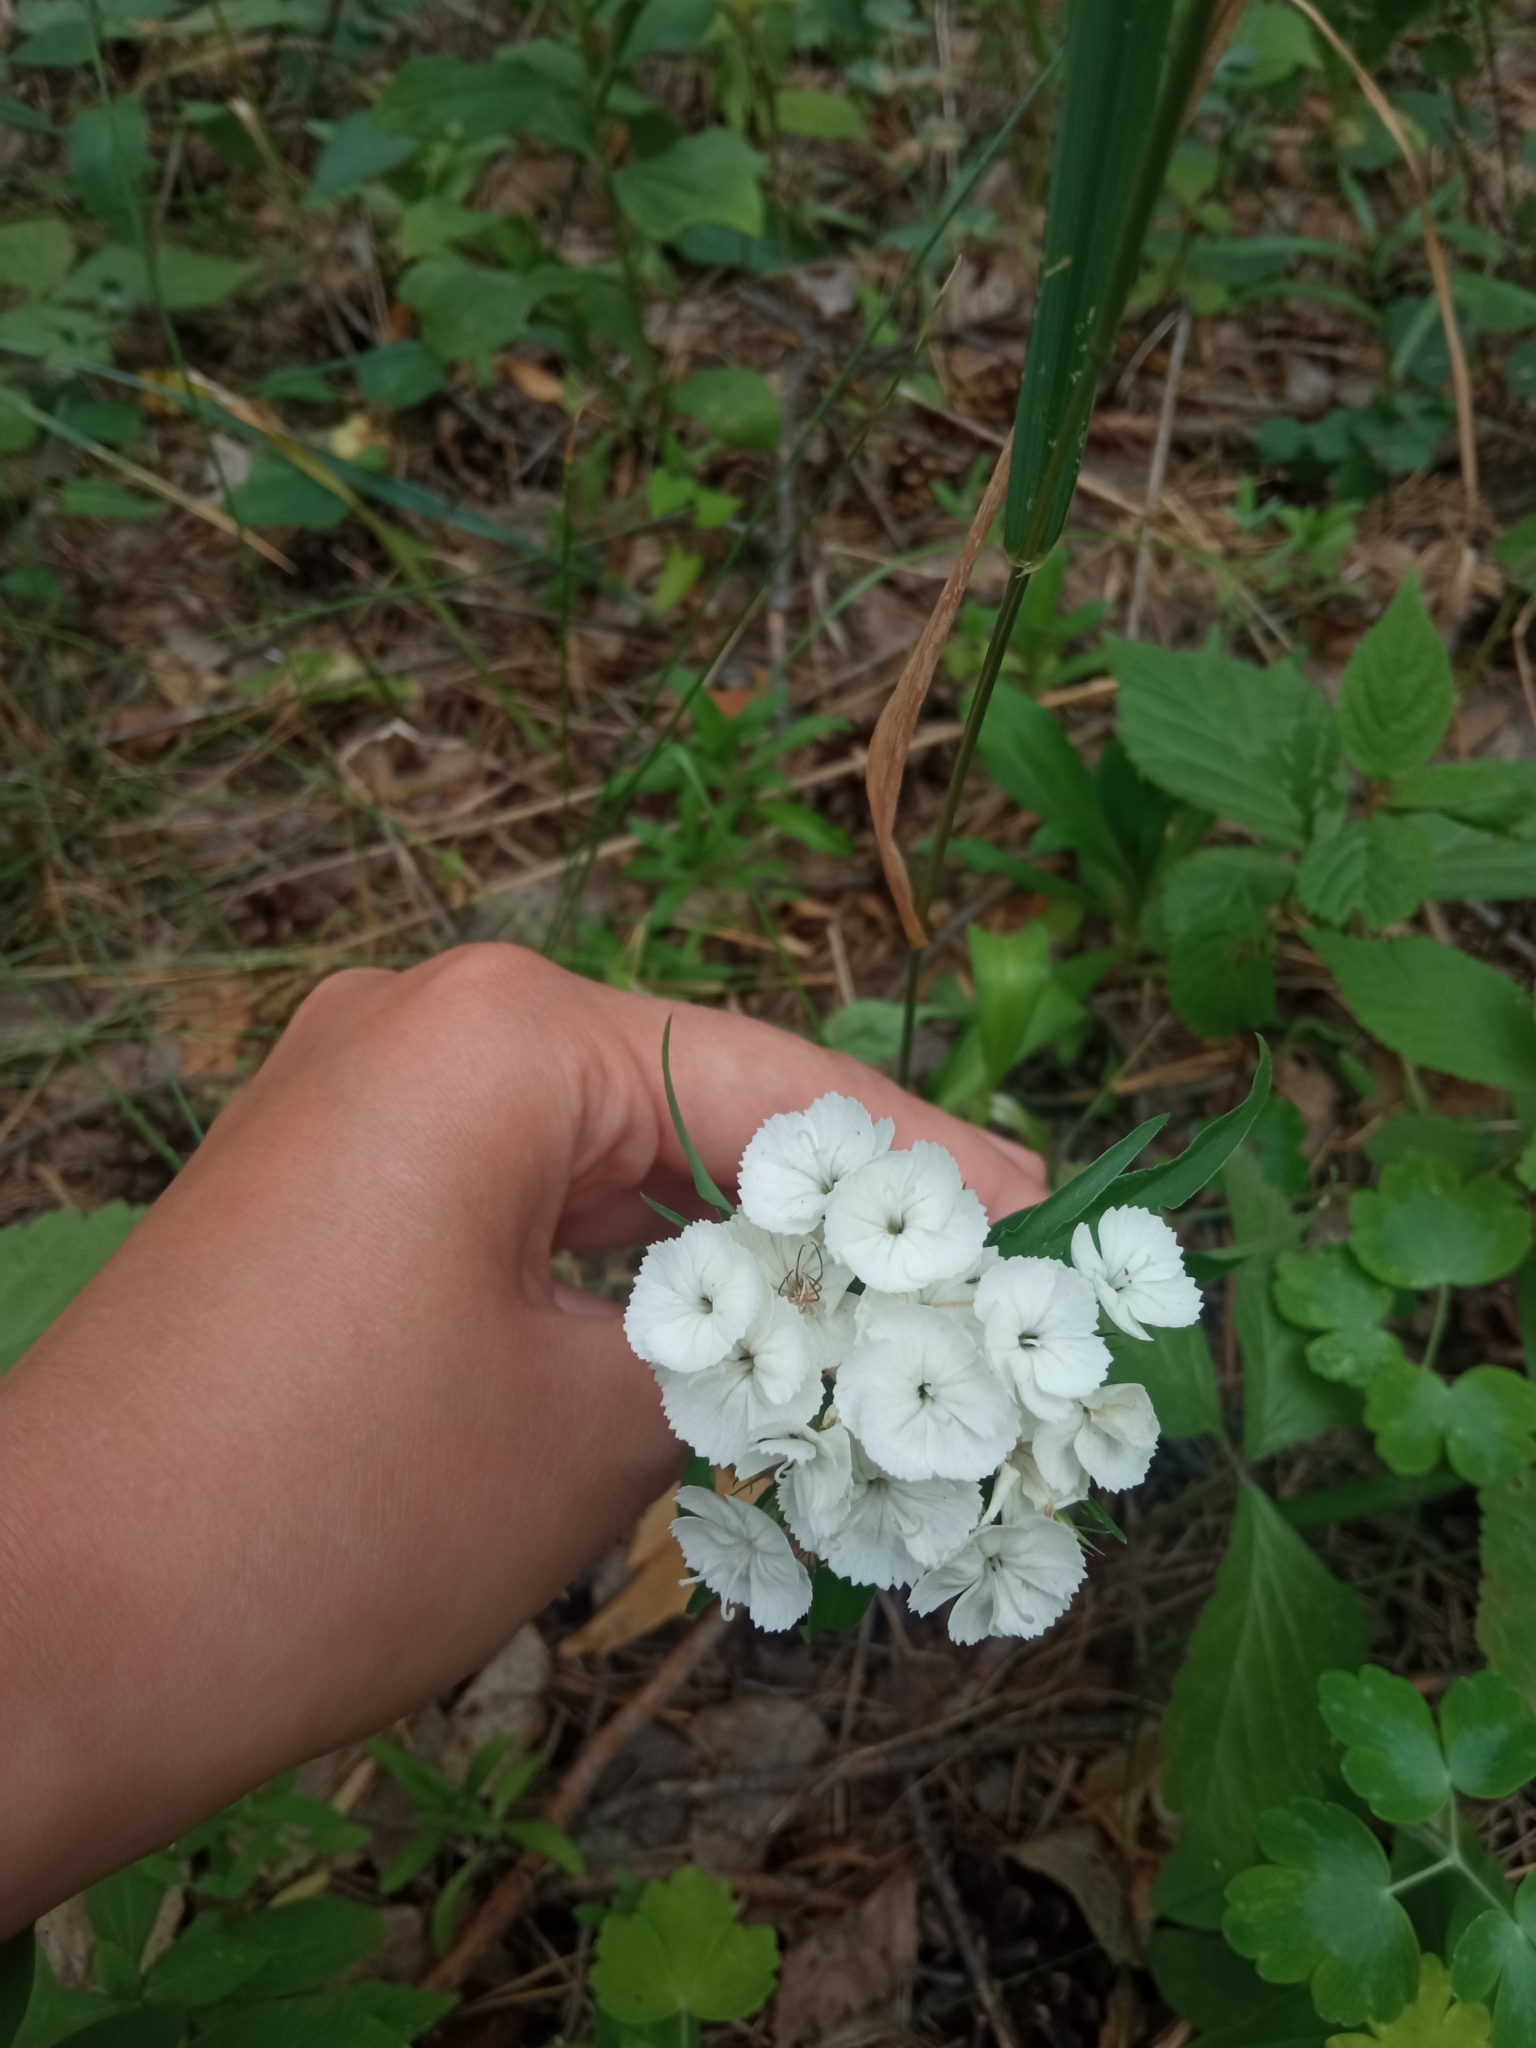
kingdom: Plantae
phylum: Tracheophyta
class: Magnoliopsida
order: Caryophyllales
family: Caryophyllaceae
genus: Dianthus
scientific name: Dianthus barbatus
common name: Sweet-william
